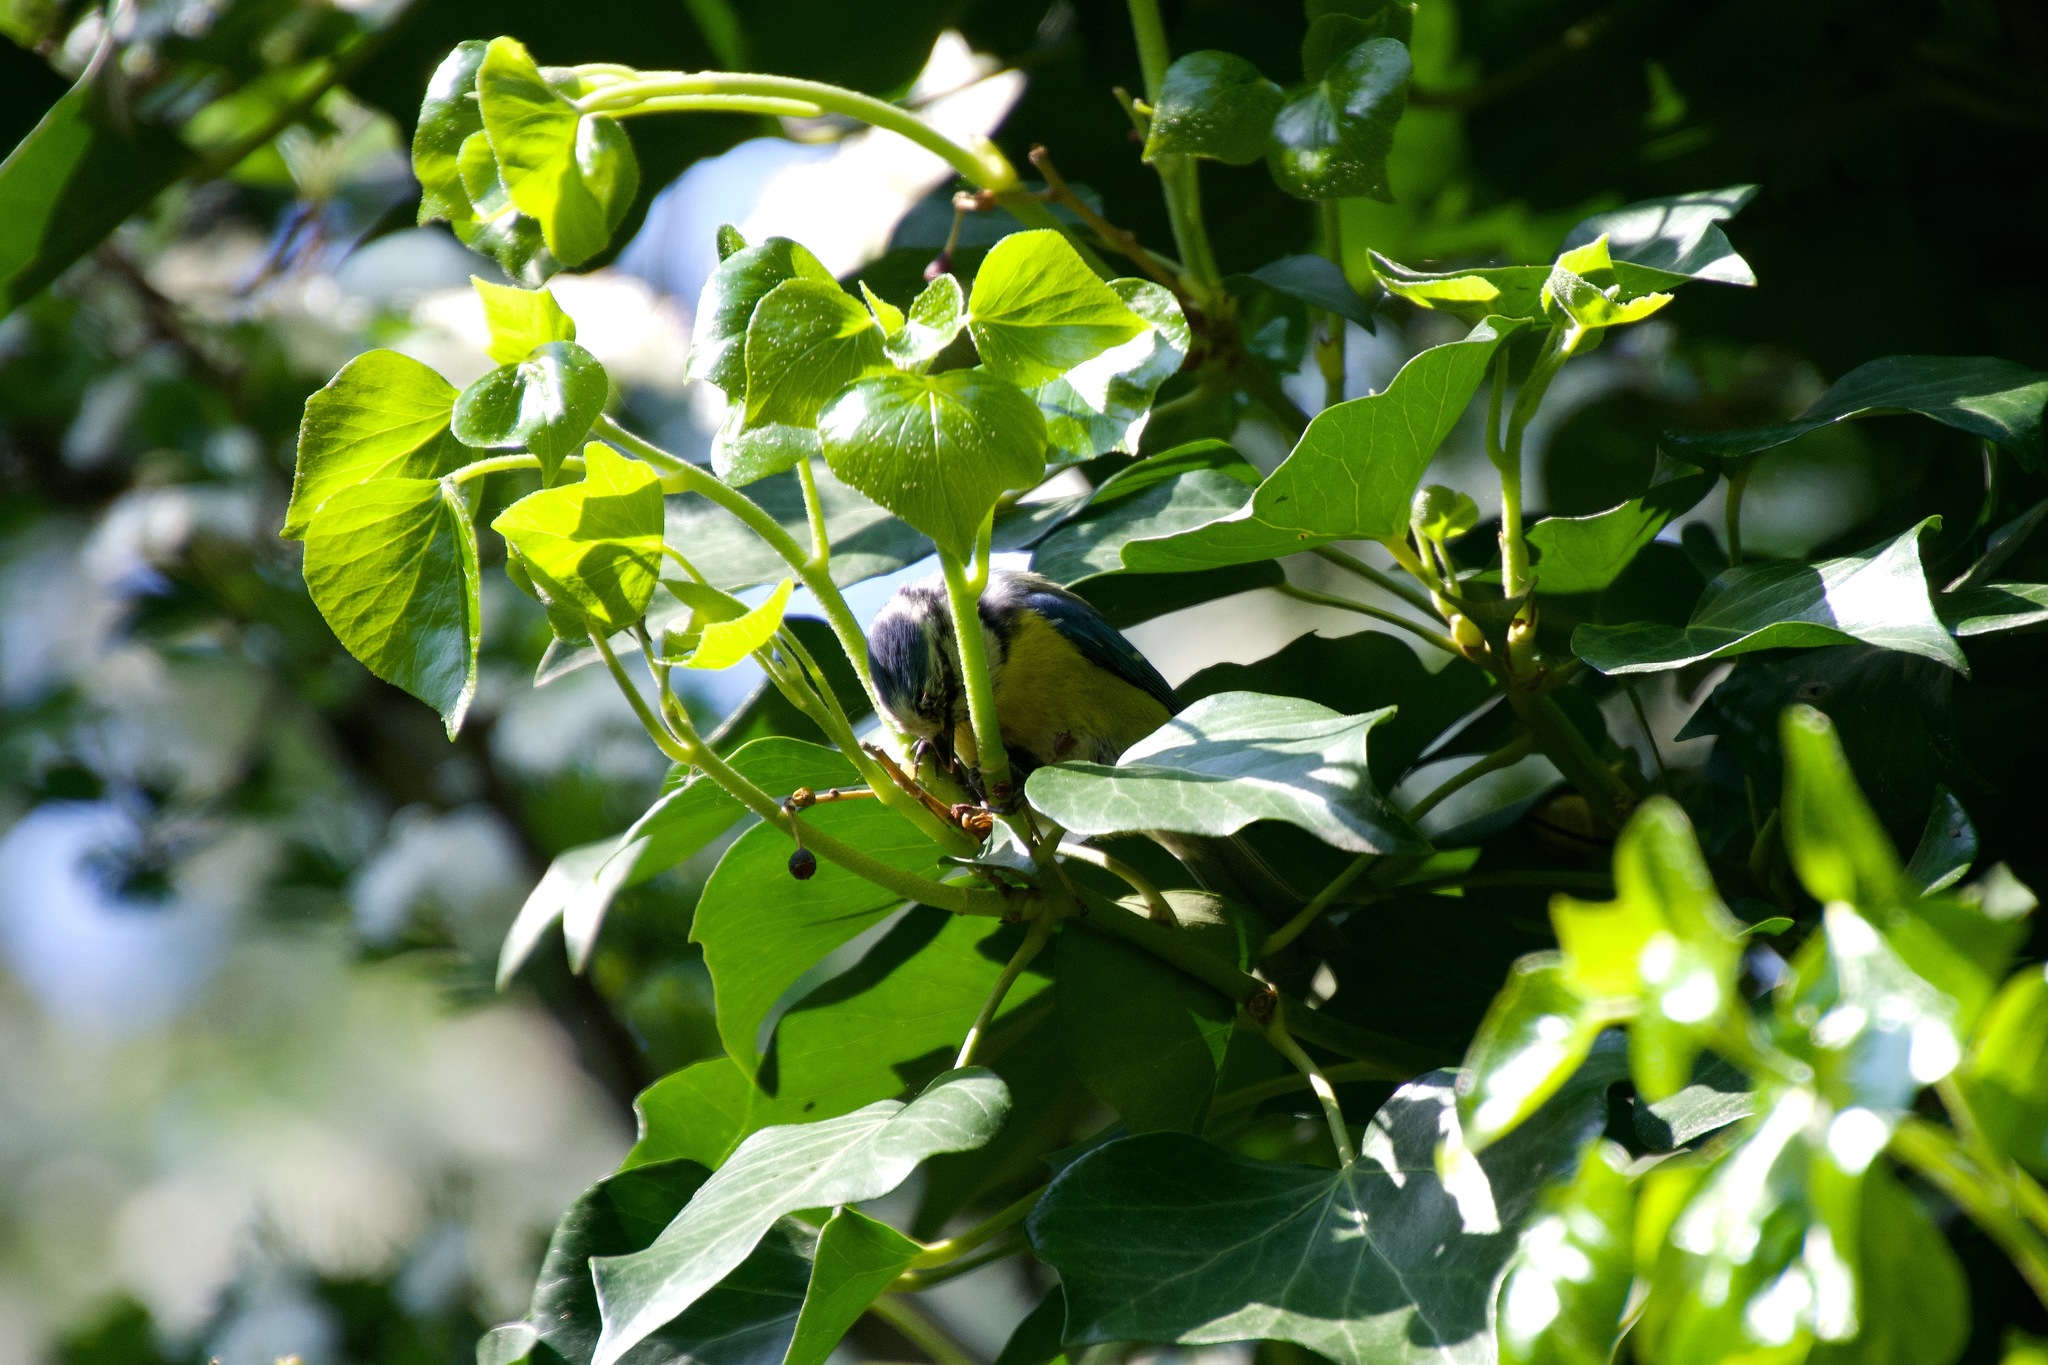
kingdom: Animalia
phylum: Chordata
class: Aves
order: Passeriformes
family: Paridae
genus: Cyanistes
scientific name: Cyanistes caeruleus
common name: Eurasian blue tit
